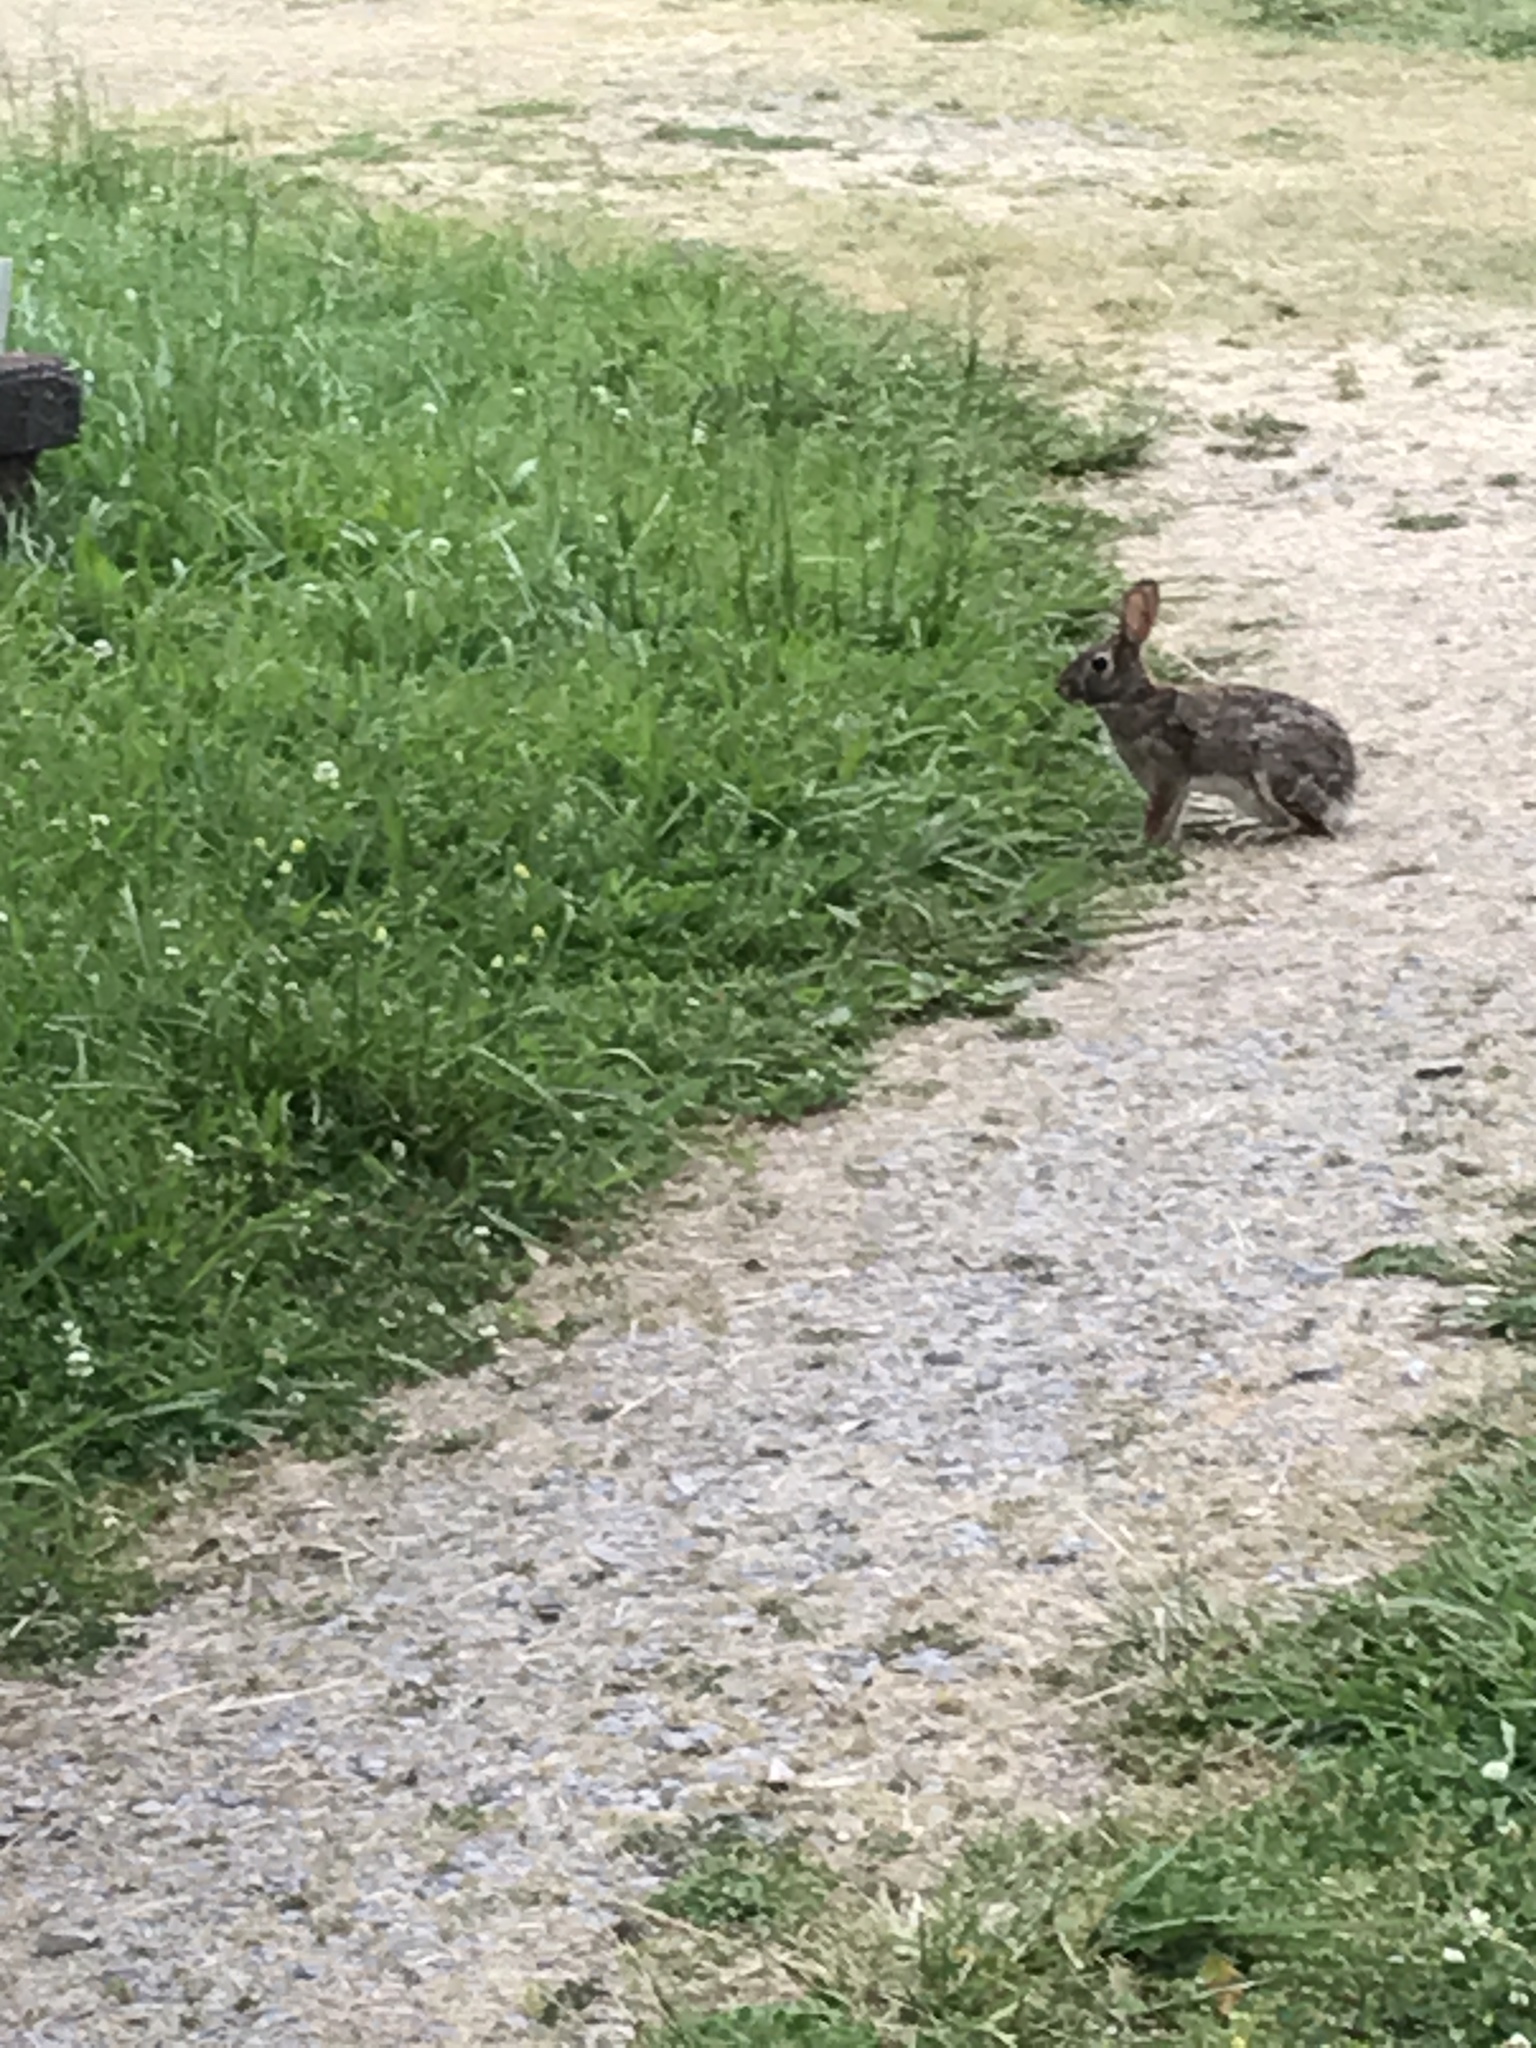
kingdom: Animalia
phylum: Chordata
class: Mammalia
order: Lagomorpha
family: Leporidae
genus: Sylvilagus
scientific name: Sylvilagus floridanus
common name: Eastern cottontail
